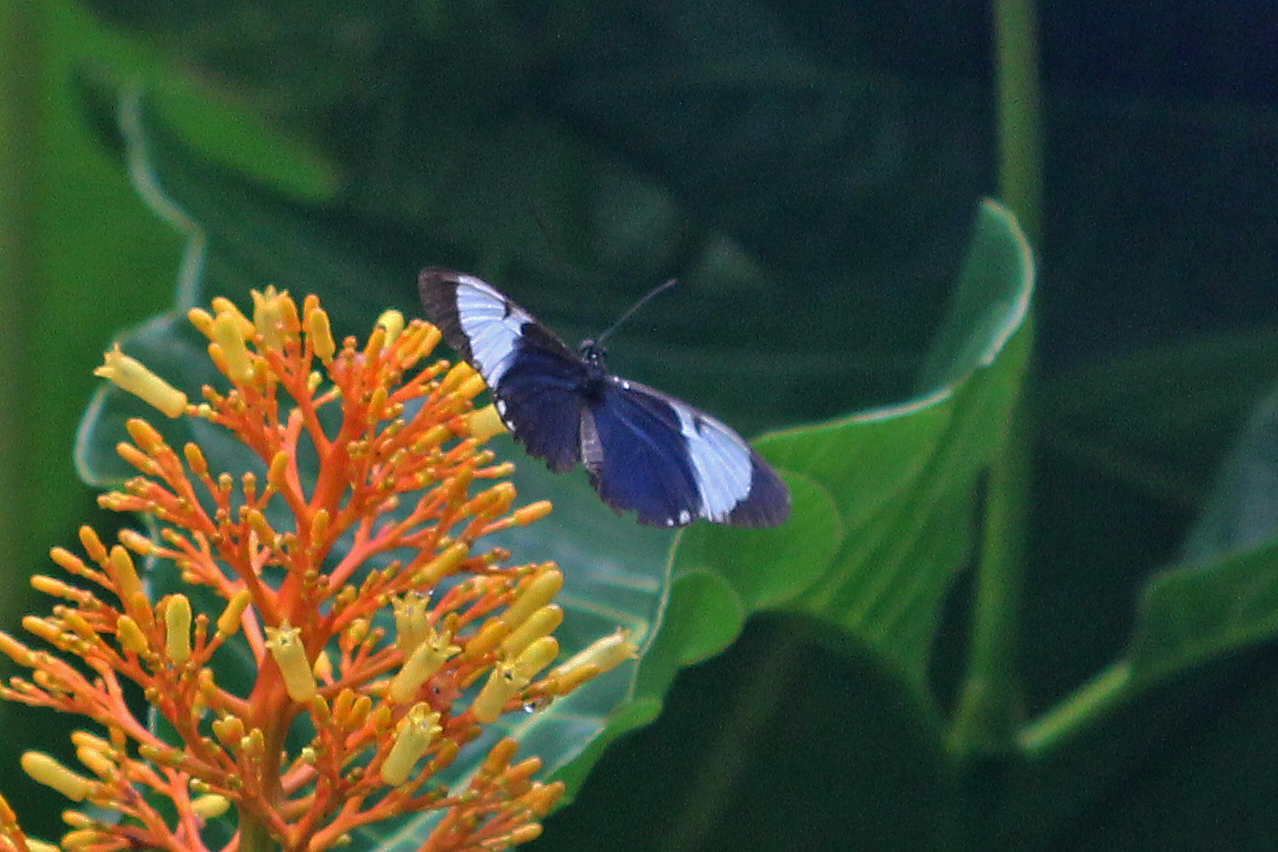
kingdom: Animalia
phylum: Arthropoda
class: Insecta
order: Lepidoptera
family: Nymphalidae
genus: Heliconius
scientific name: Heliconius cydno
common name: Cydno longwing
